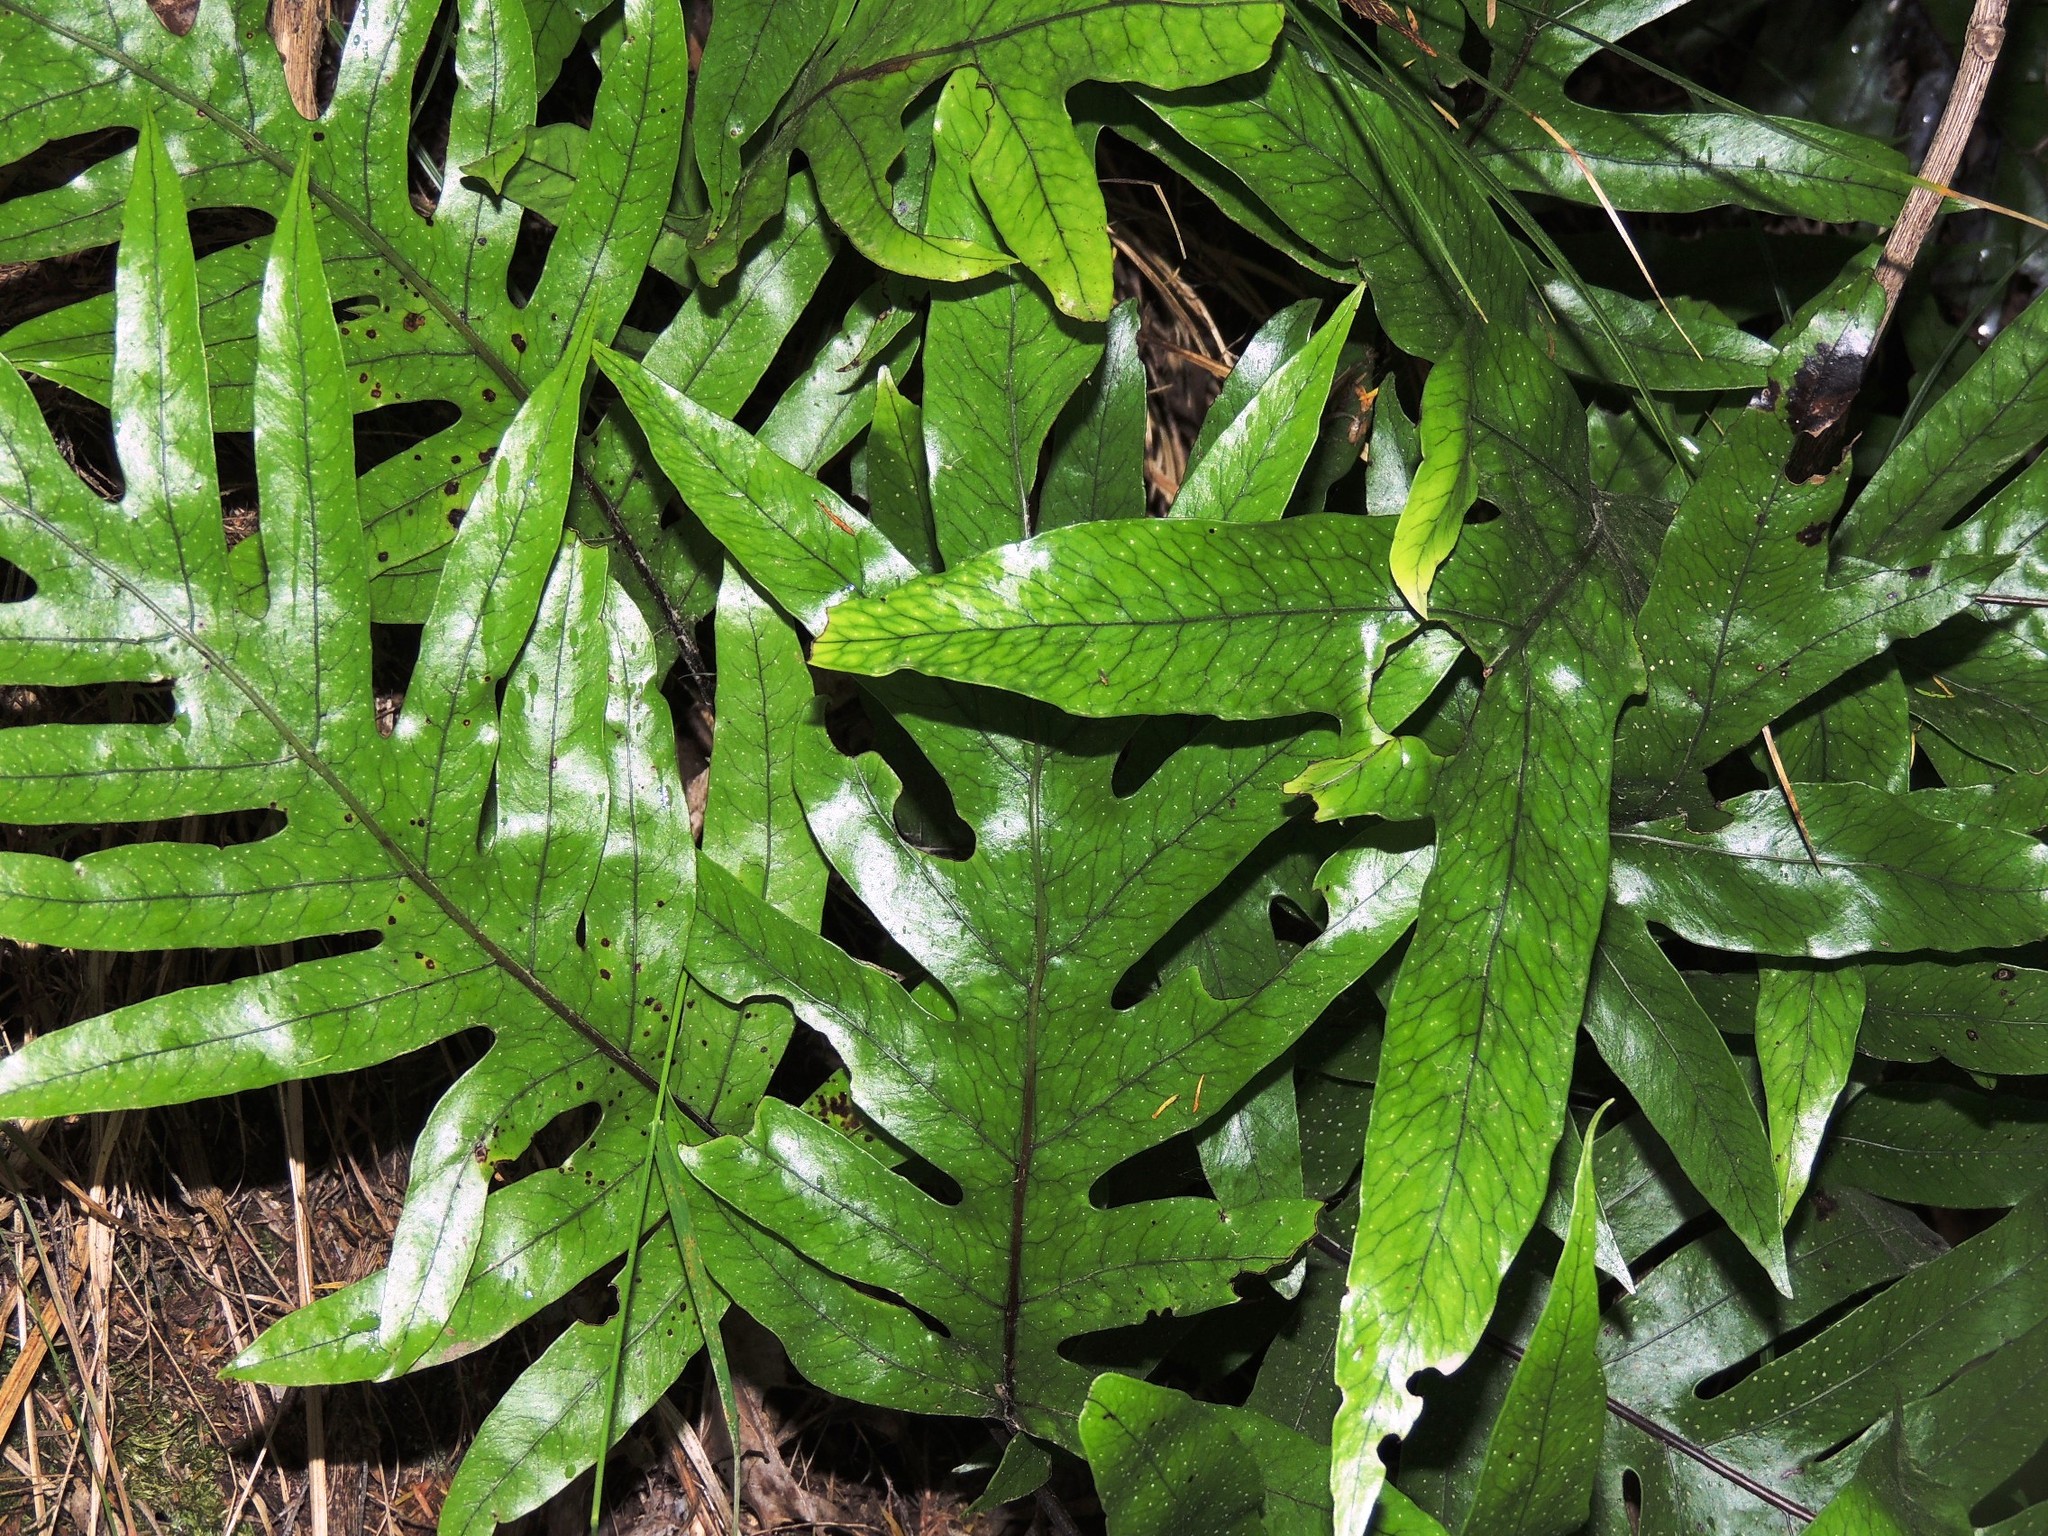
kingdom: Plantae
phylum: Tracheophyta
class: Polypodiopsida
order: Polypodiales
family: Polypodiaceae
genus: Lecanopteris
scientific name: Lecanopteris pustulata
